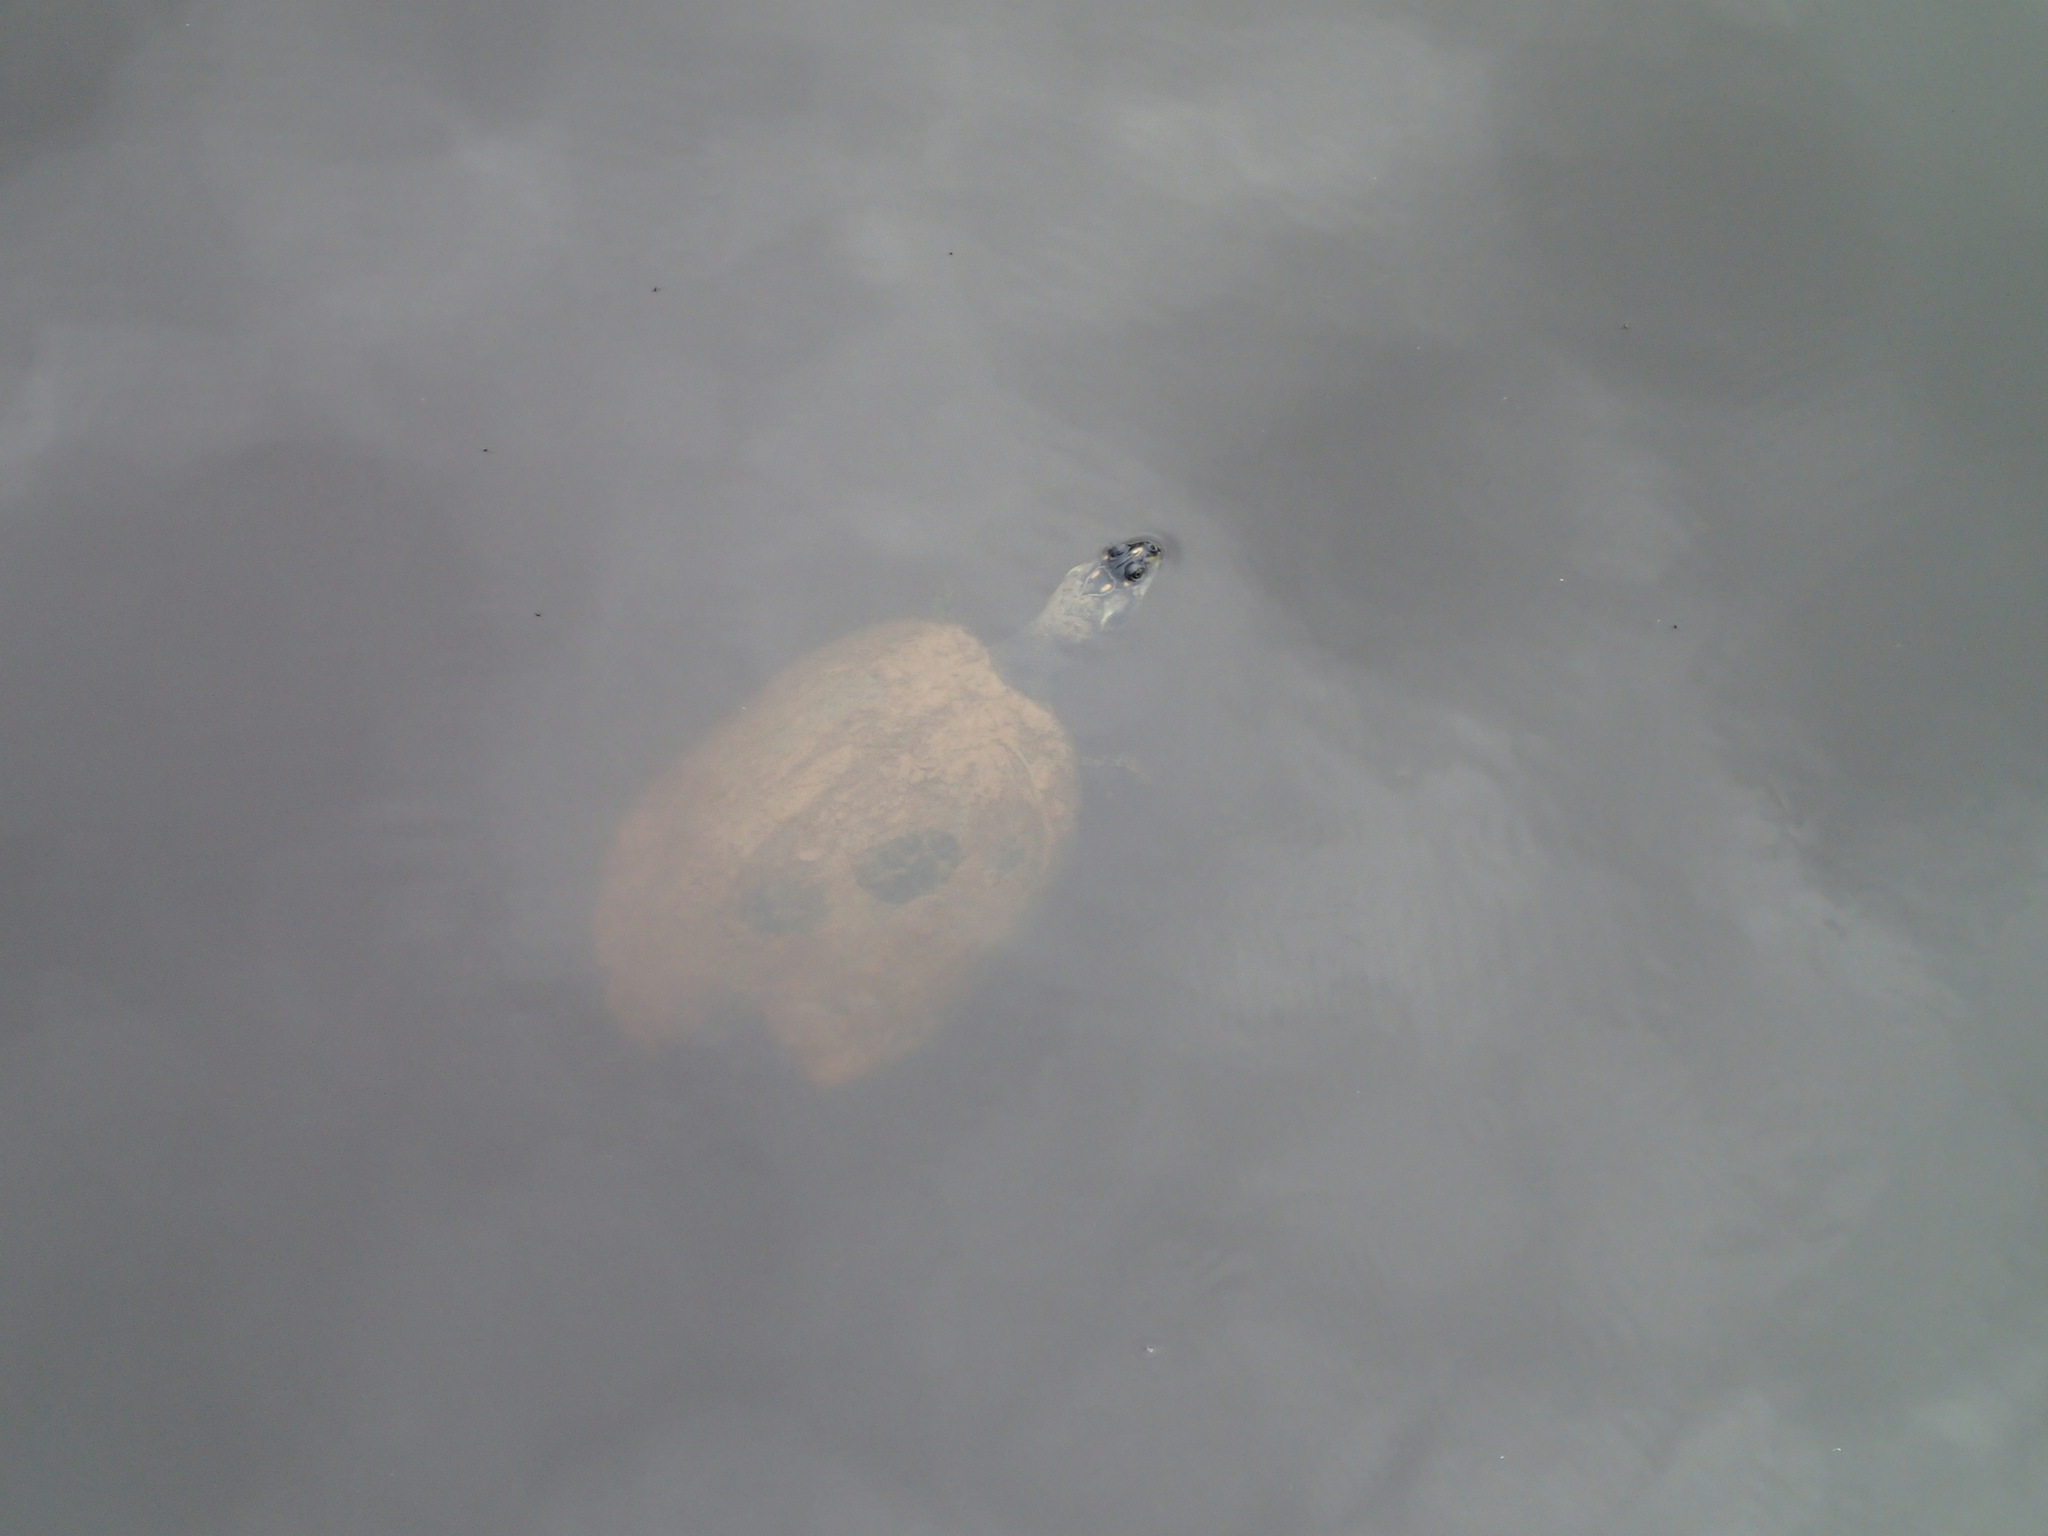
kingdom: Animalia
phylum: Chordata
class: Testudines
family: Podocnemididae
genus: Podocnemis
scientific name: Podocnemis unifilis
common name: Yellow-spotted amazon river turtle
